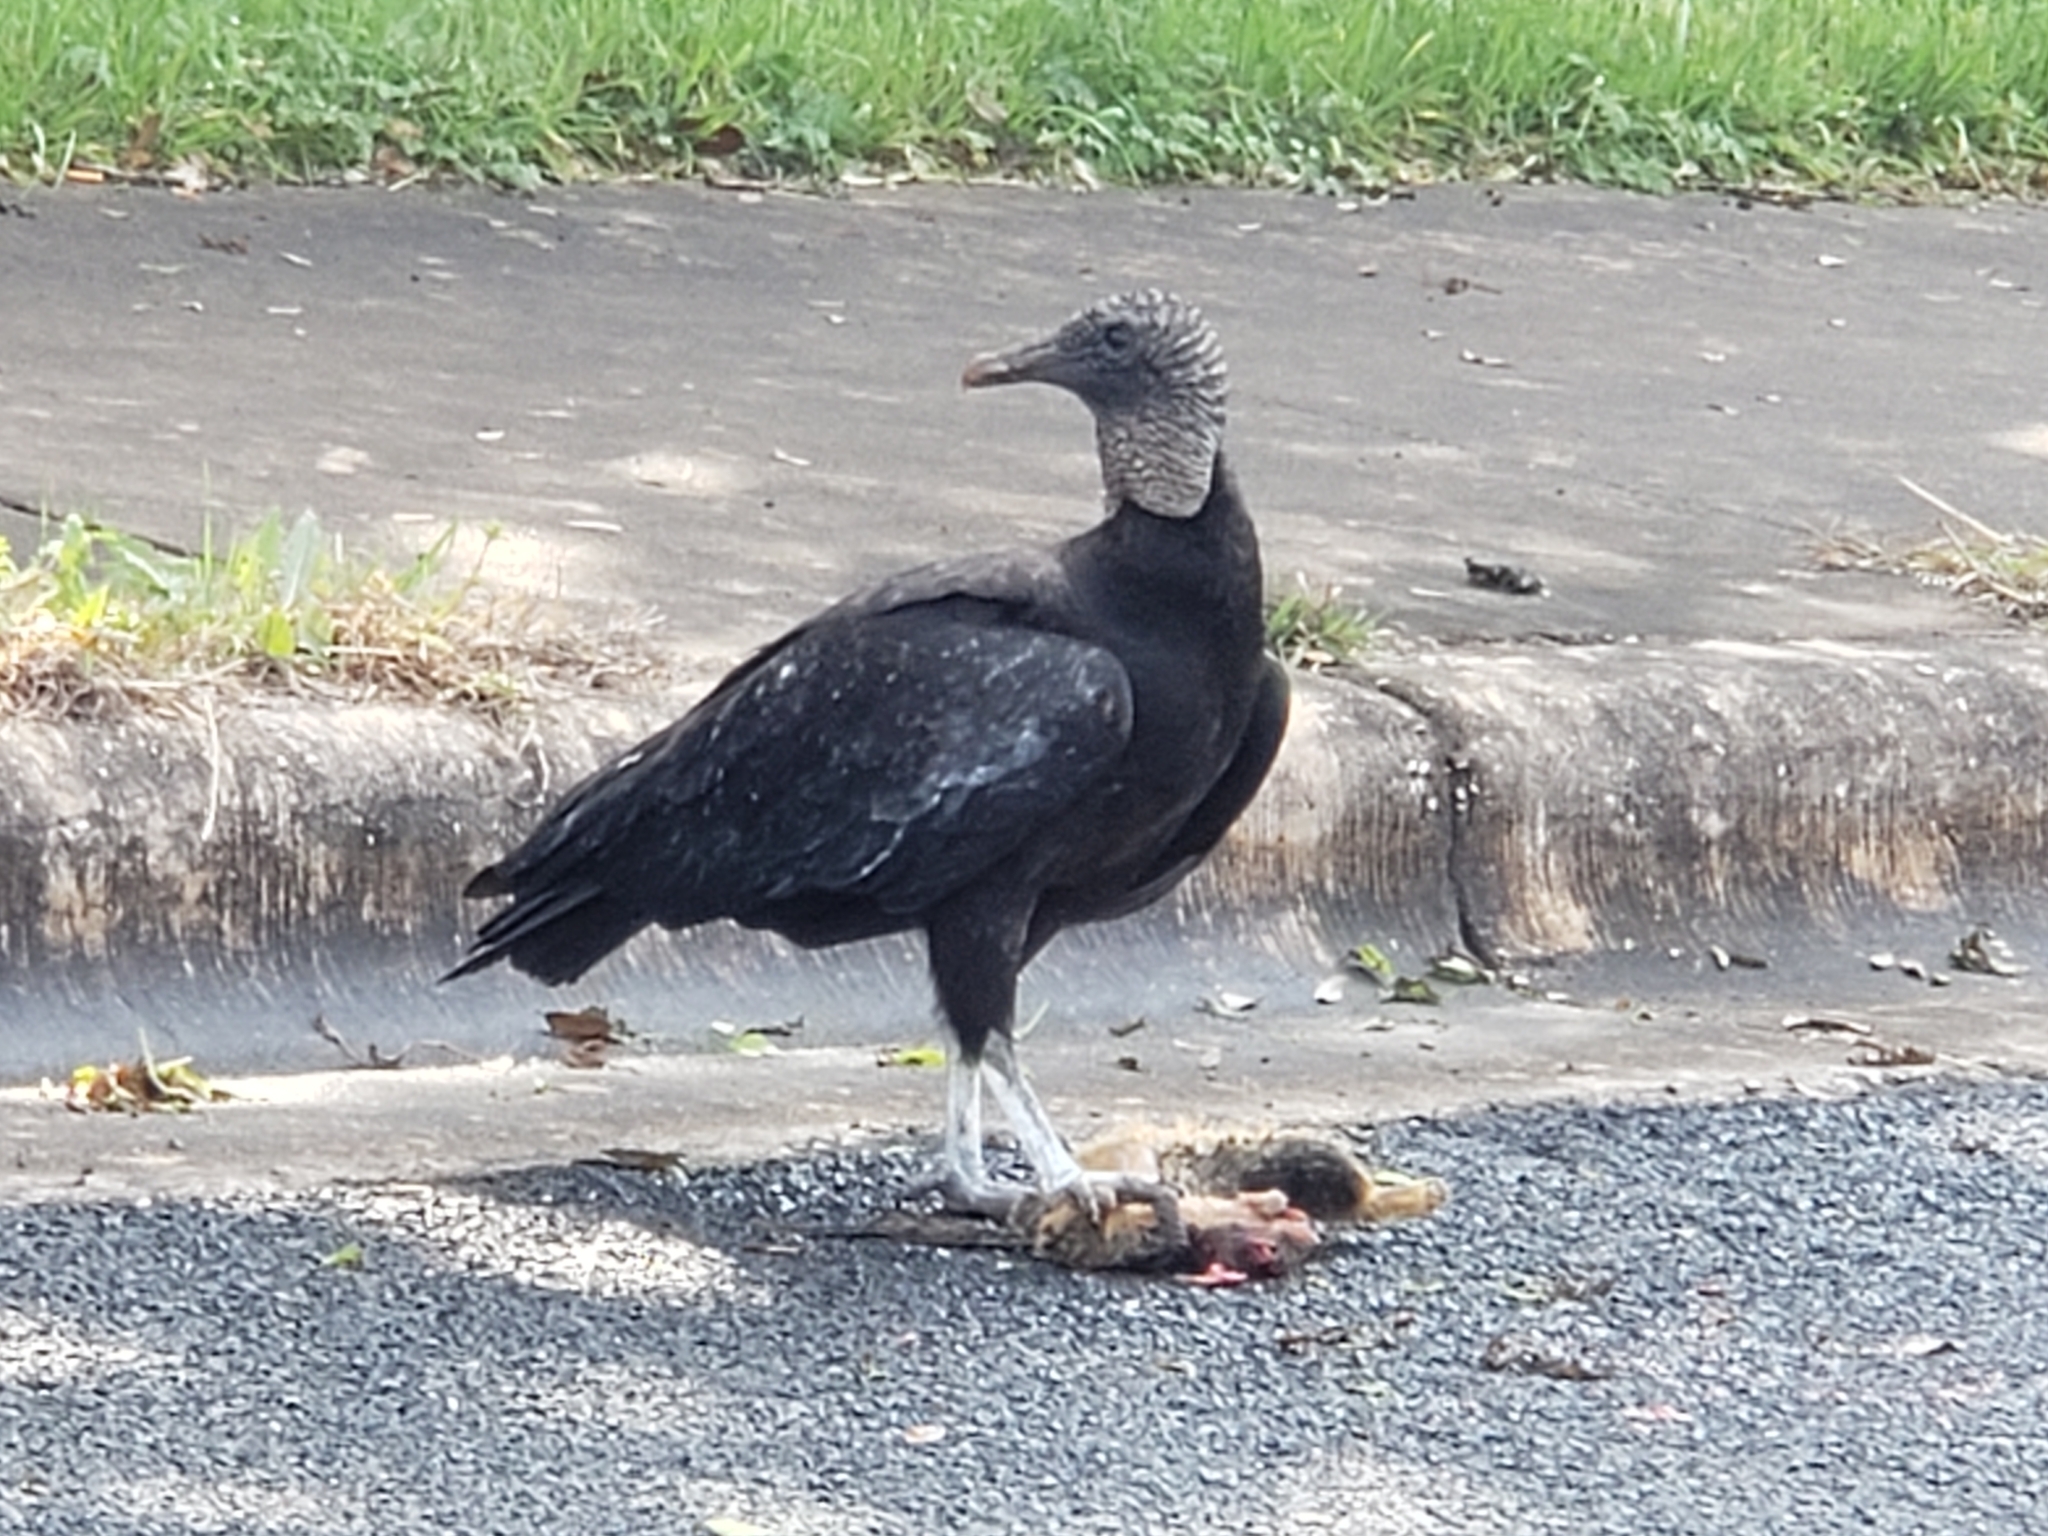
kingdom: Animalia
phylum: Chordata
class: Aves
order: Accipitriformes
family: Cathartidae
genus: Coragyps
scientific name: Coragyps atratus
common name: Black vulture
